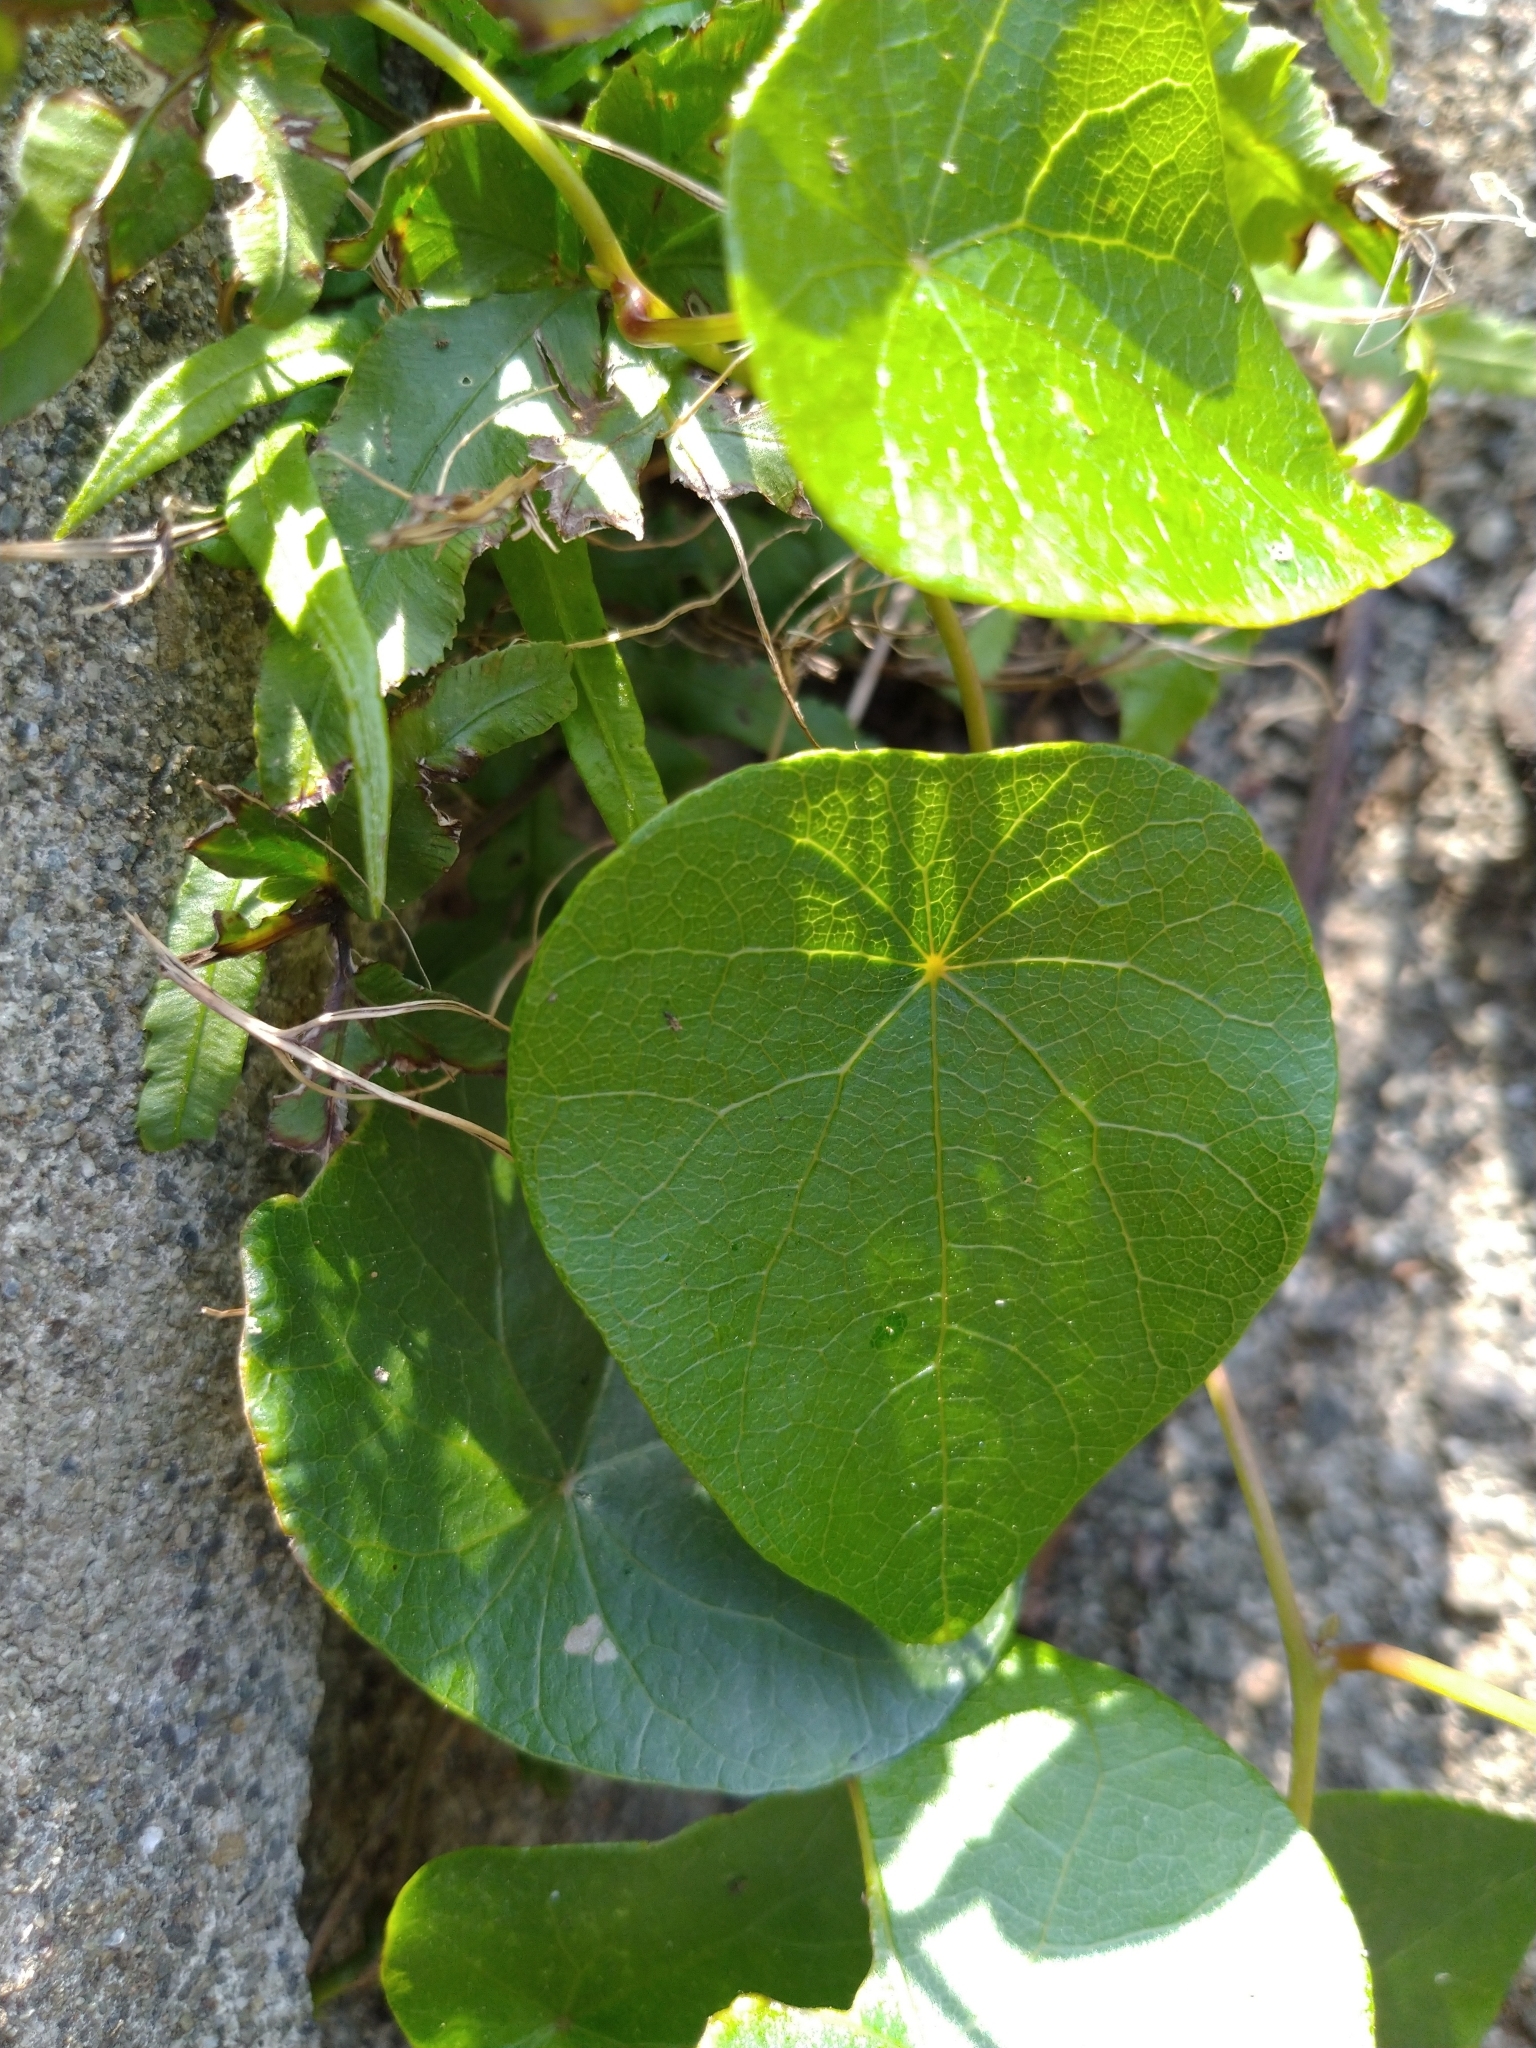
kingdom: Plantae
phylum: Tracheophyta
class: Magnoliopsida
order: Ranunculales
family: Menispermaceae
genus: Stephania
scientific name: Stephania japonica
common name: Snake vine
